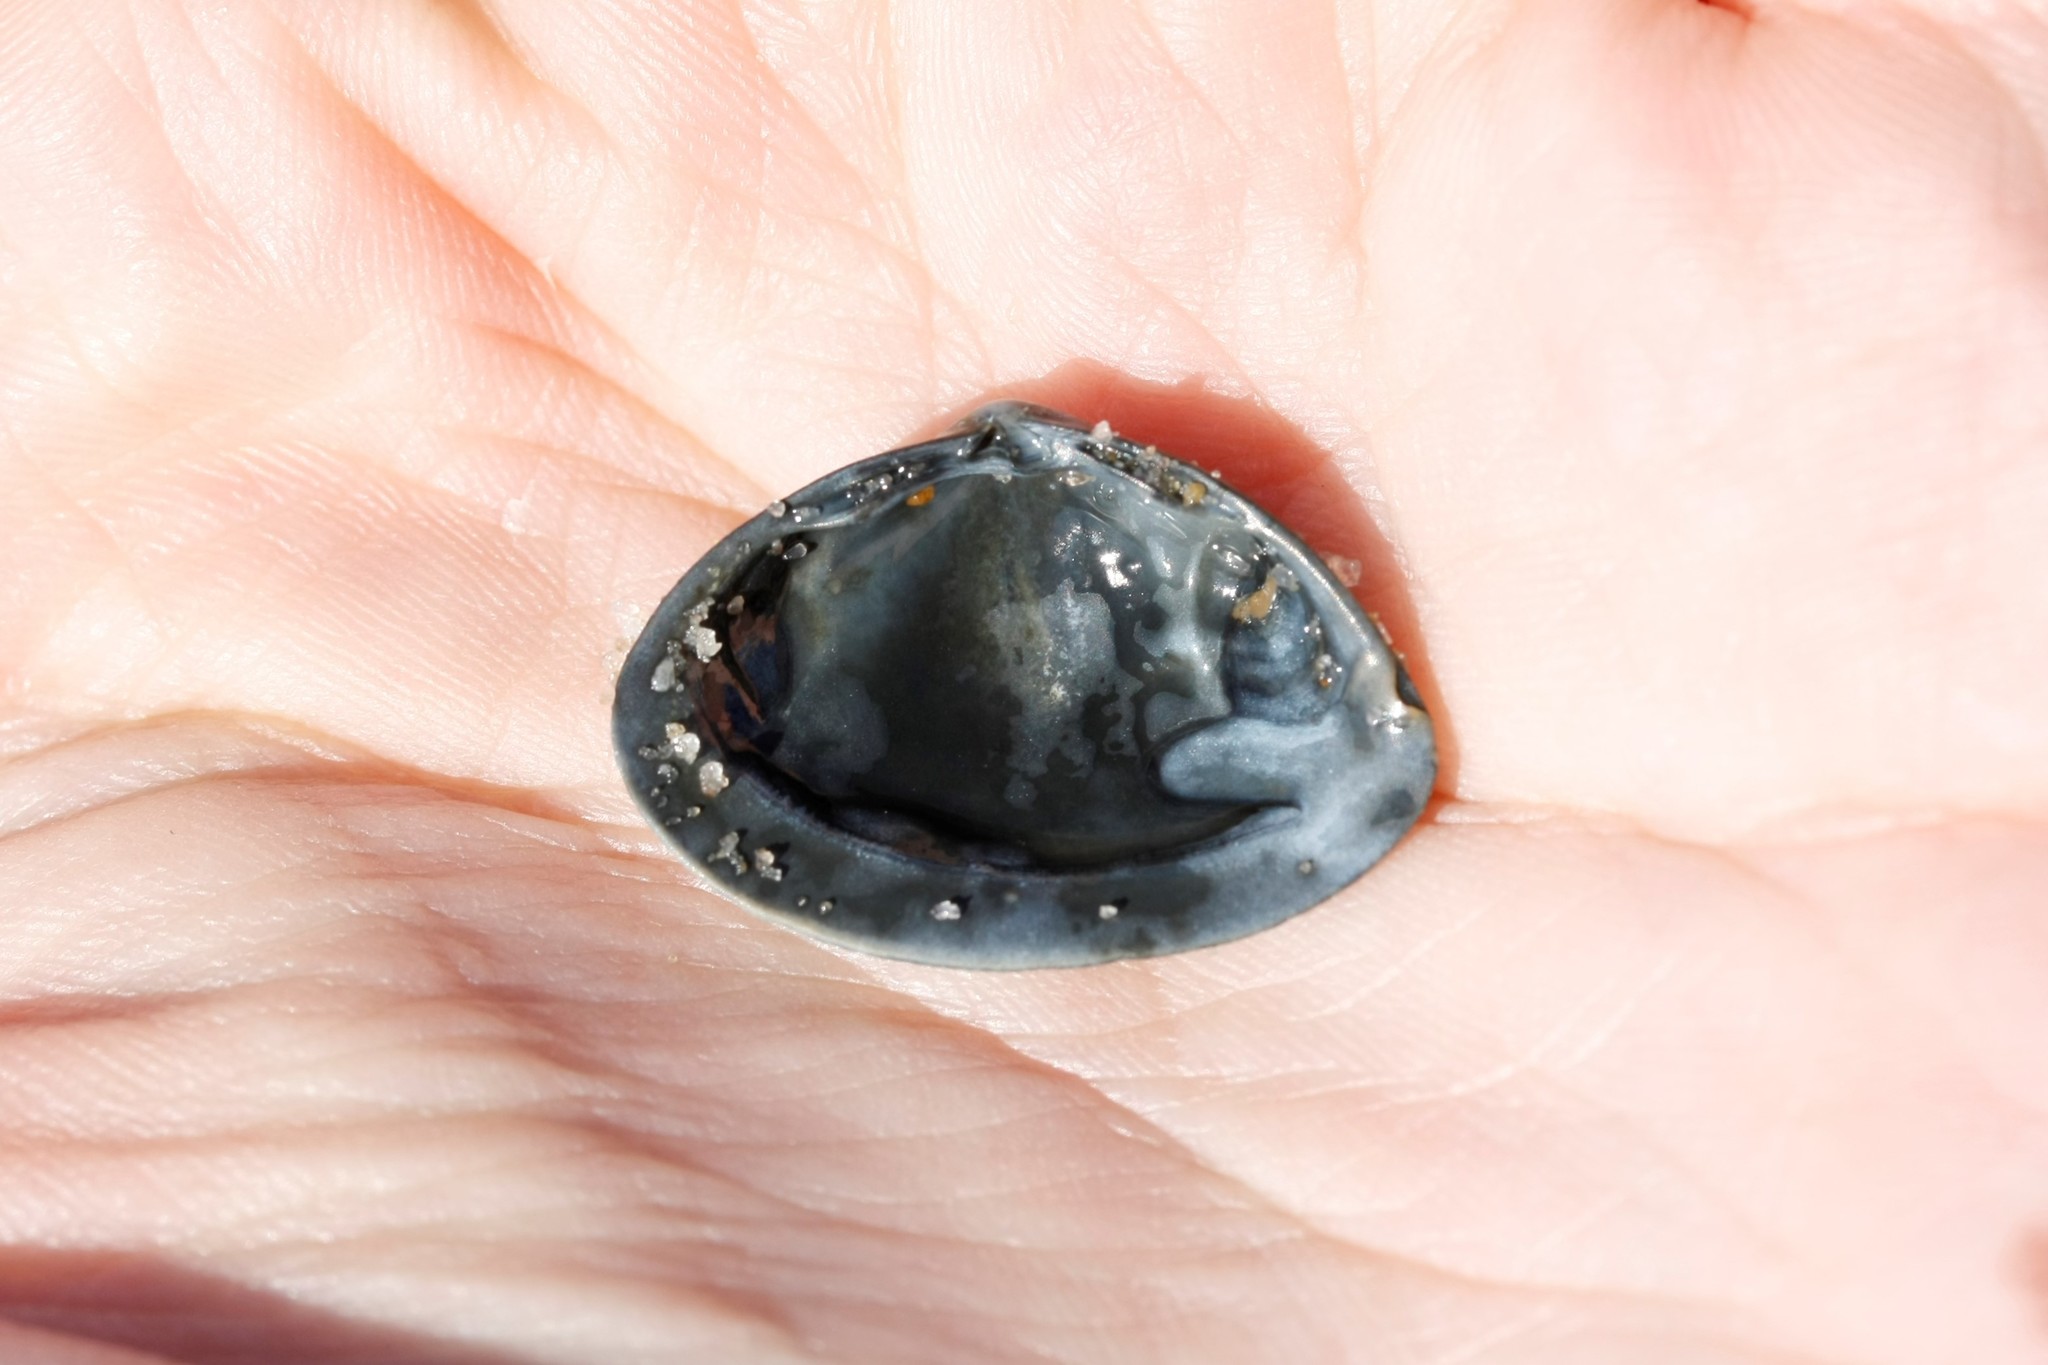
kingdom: Animalia
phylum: Mollusca
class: Bivalvia
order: Venerida
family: Mactridae
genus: Spisula
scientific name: Spisula solida
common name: Thick trough shell
